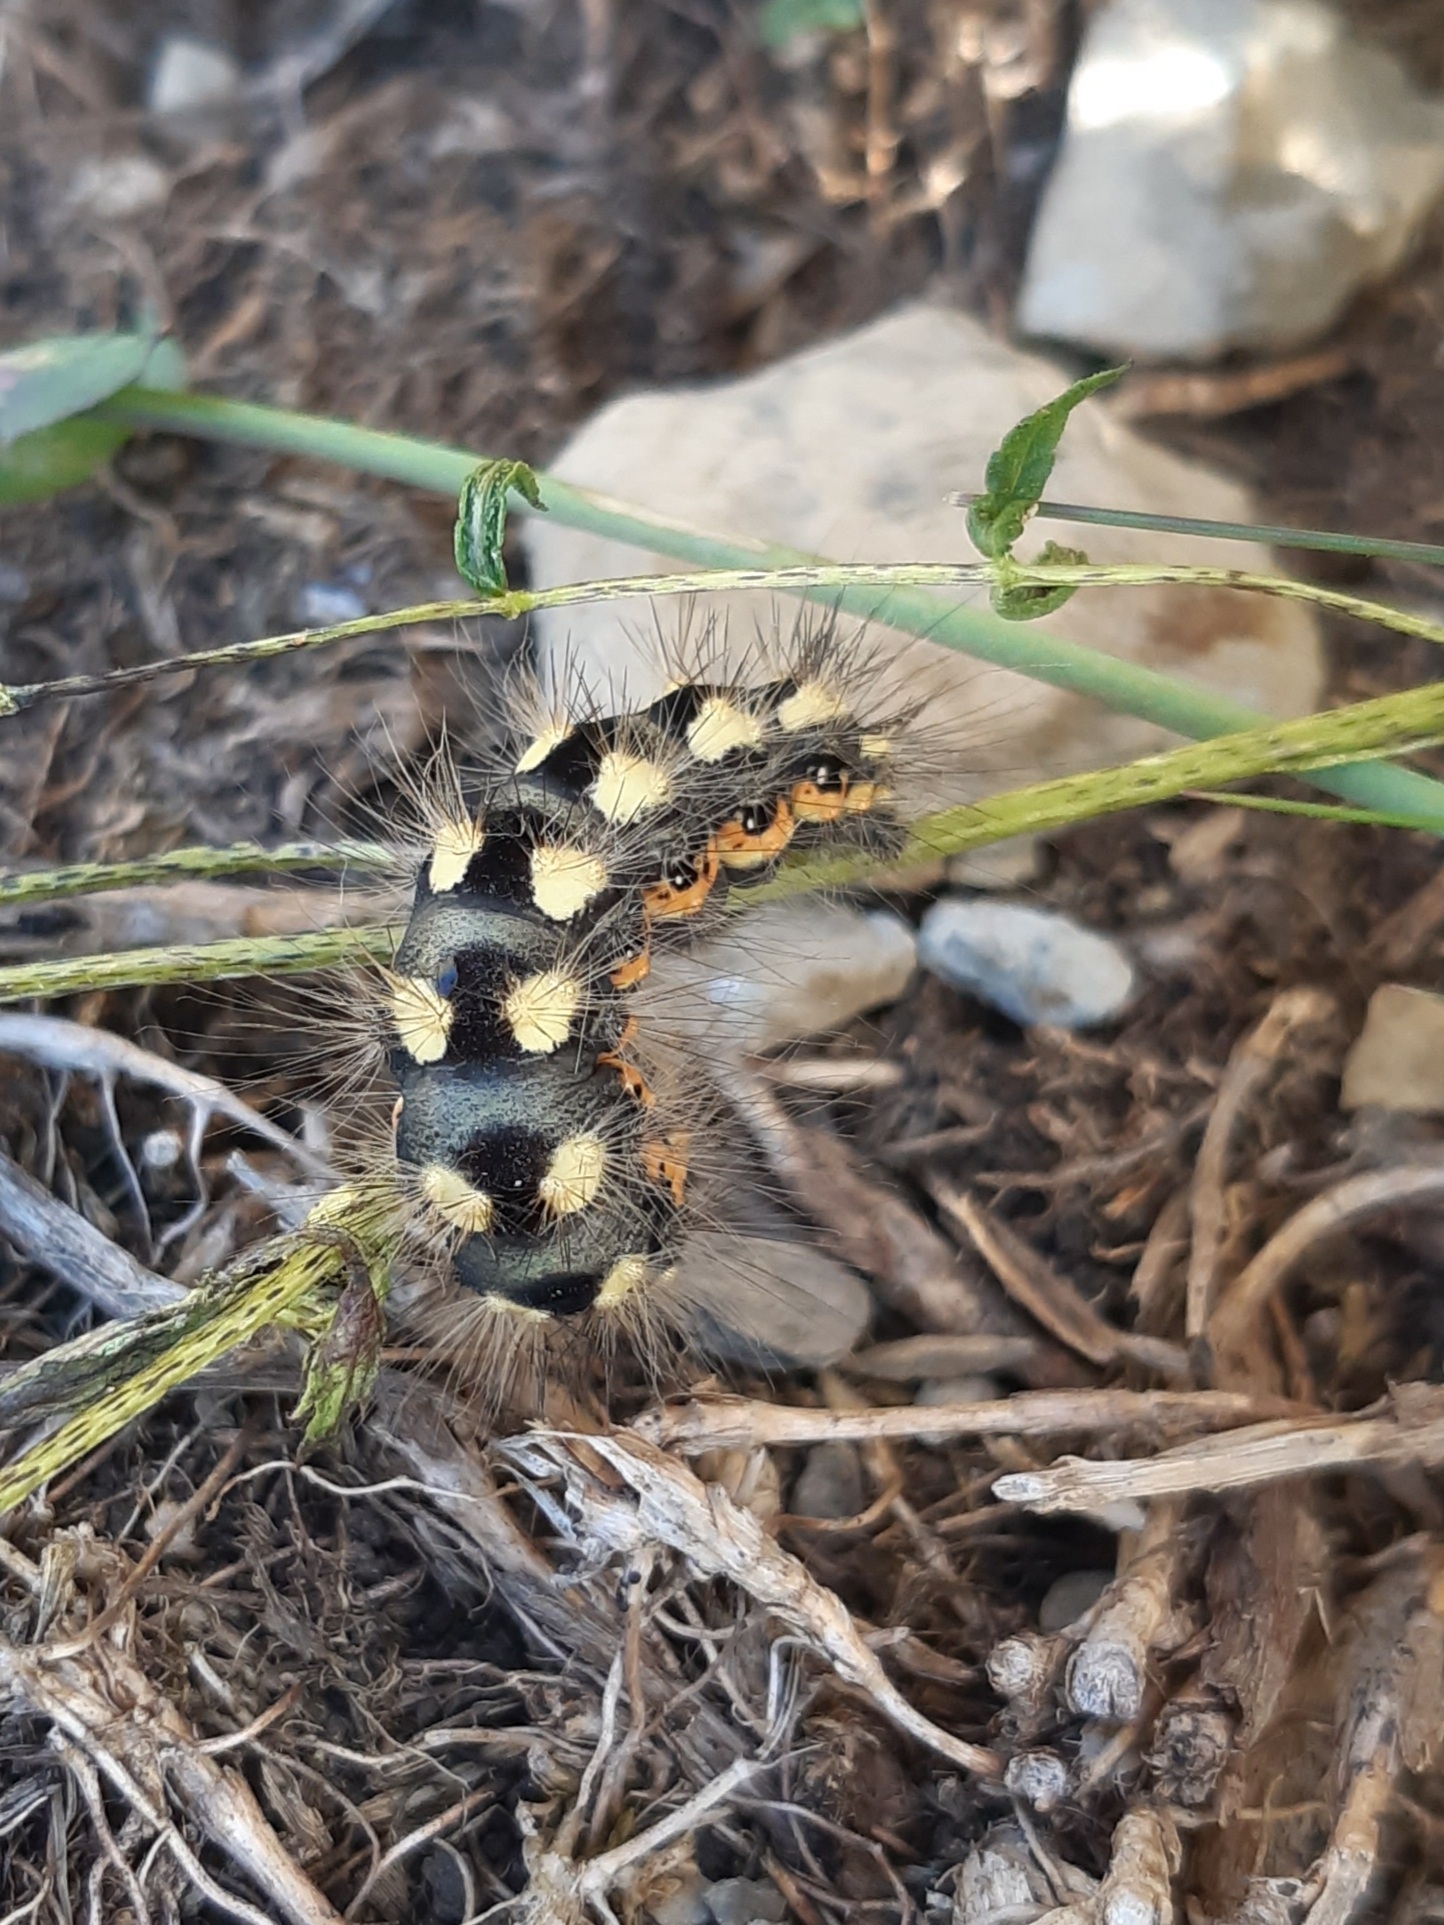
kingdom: Animalia
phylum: Arthropoda
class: Insecta
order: Lepidoptera
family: Noctuidae
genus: Acronicta
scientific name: Acronicta euphorbiae
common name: Sweet gale moth
